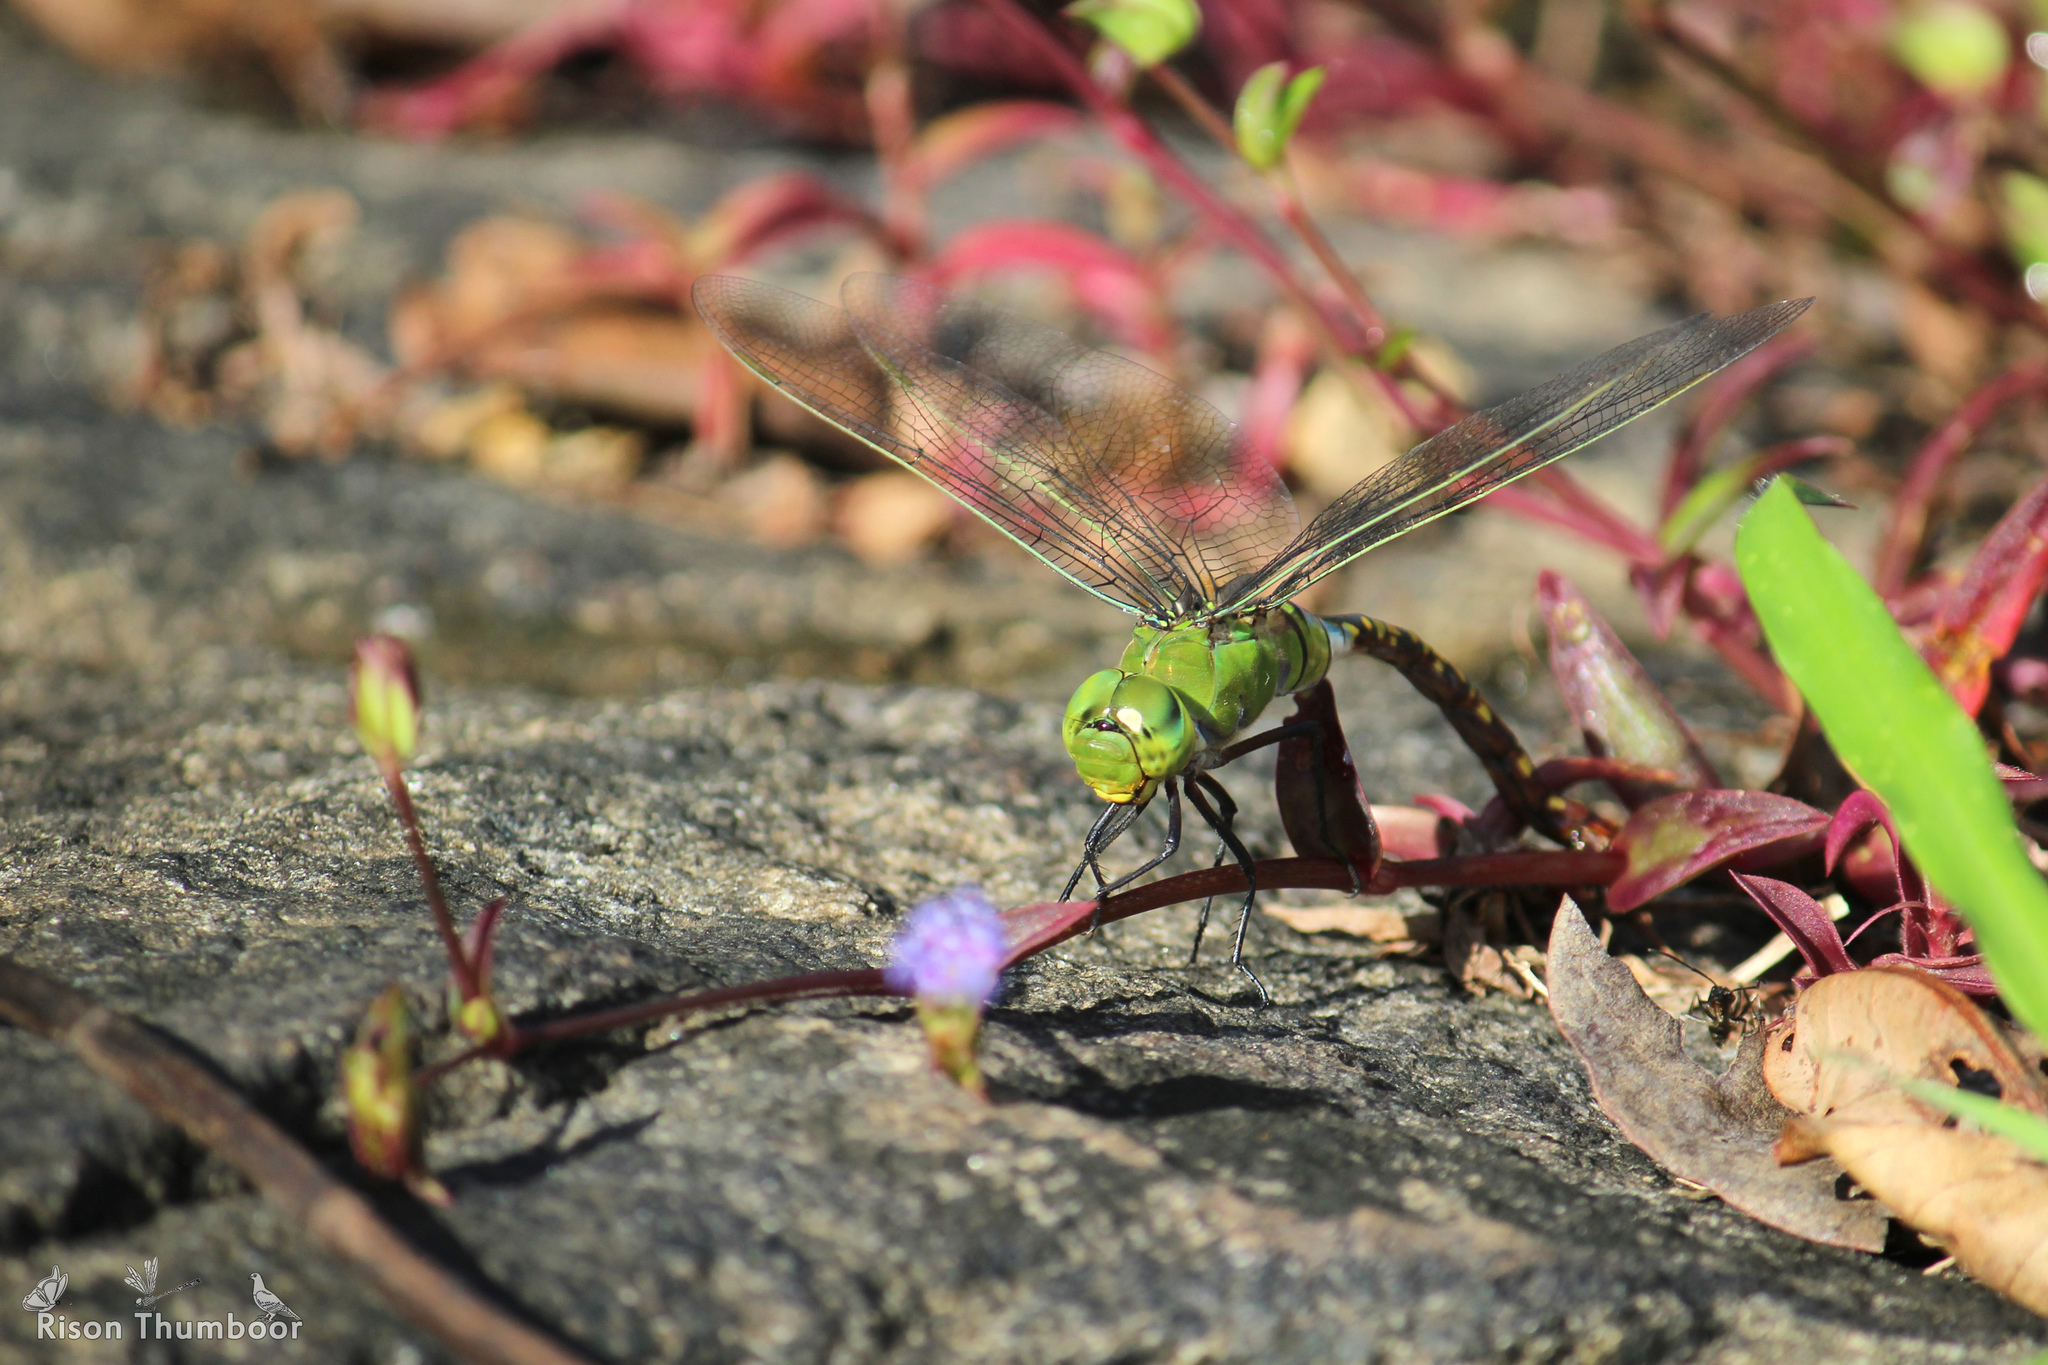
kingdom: Animalia
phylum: Arthropoda
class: Insecta
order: Odonata
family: Aeshnidae
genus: Anax
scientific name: Anax indicus
